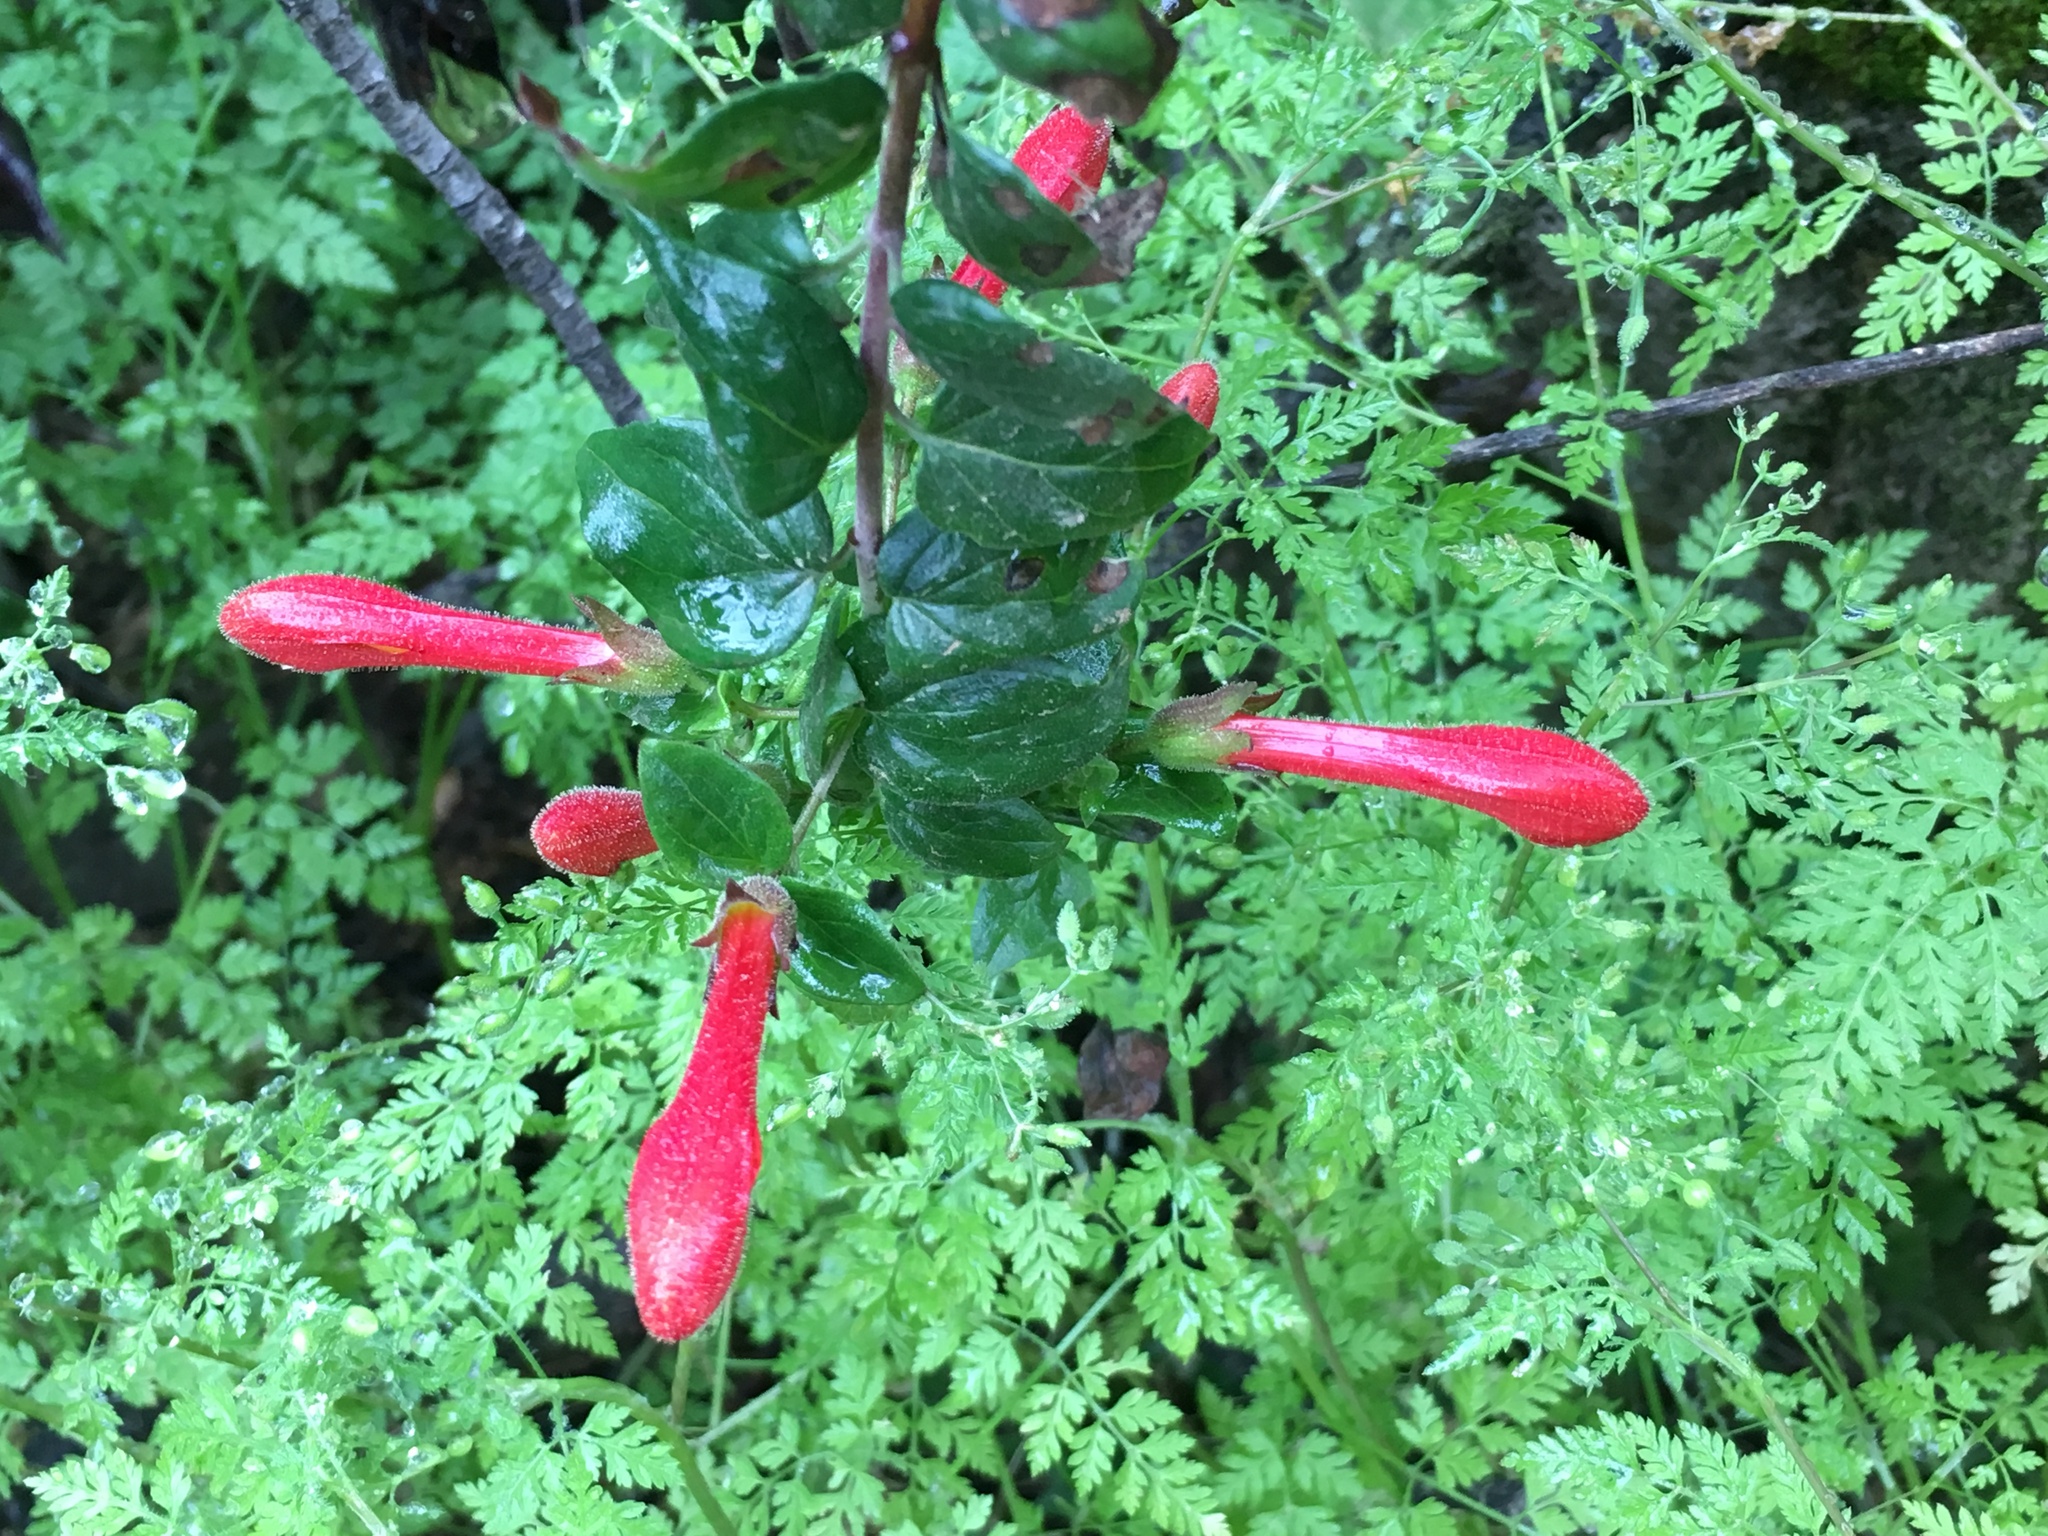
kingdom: Plantae
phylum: Tracheophyta
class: Magnoliopsida
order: Lamiales
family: Plantaginaceae
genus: Keckiella
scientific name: Keckiella cordifolia
